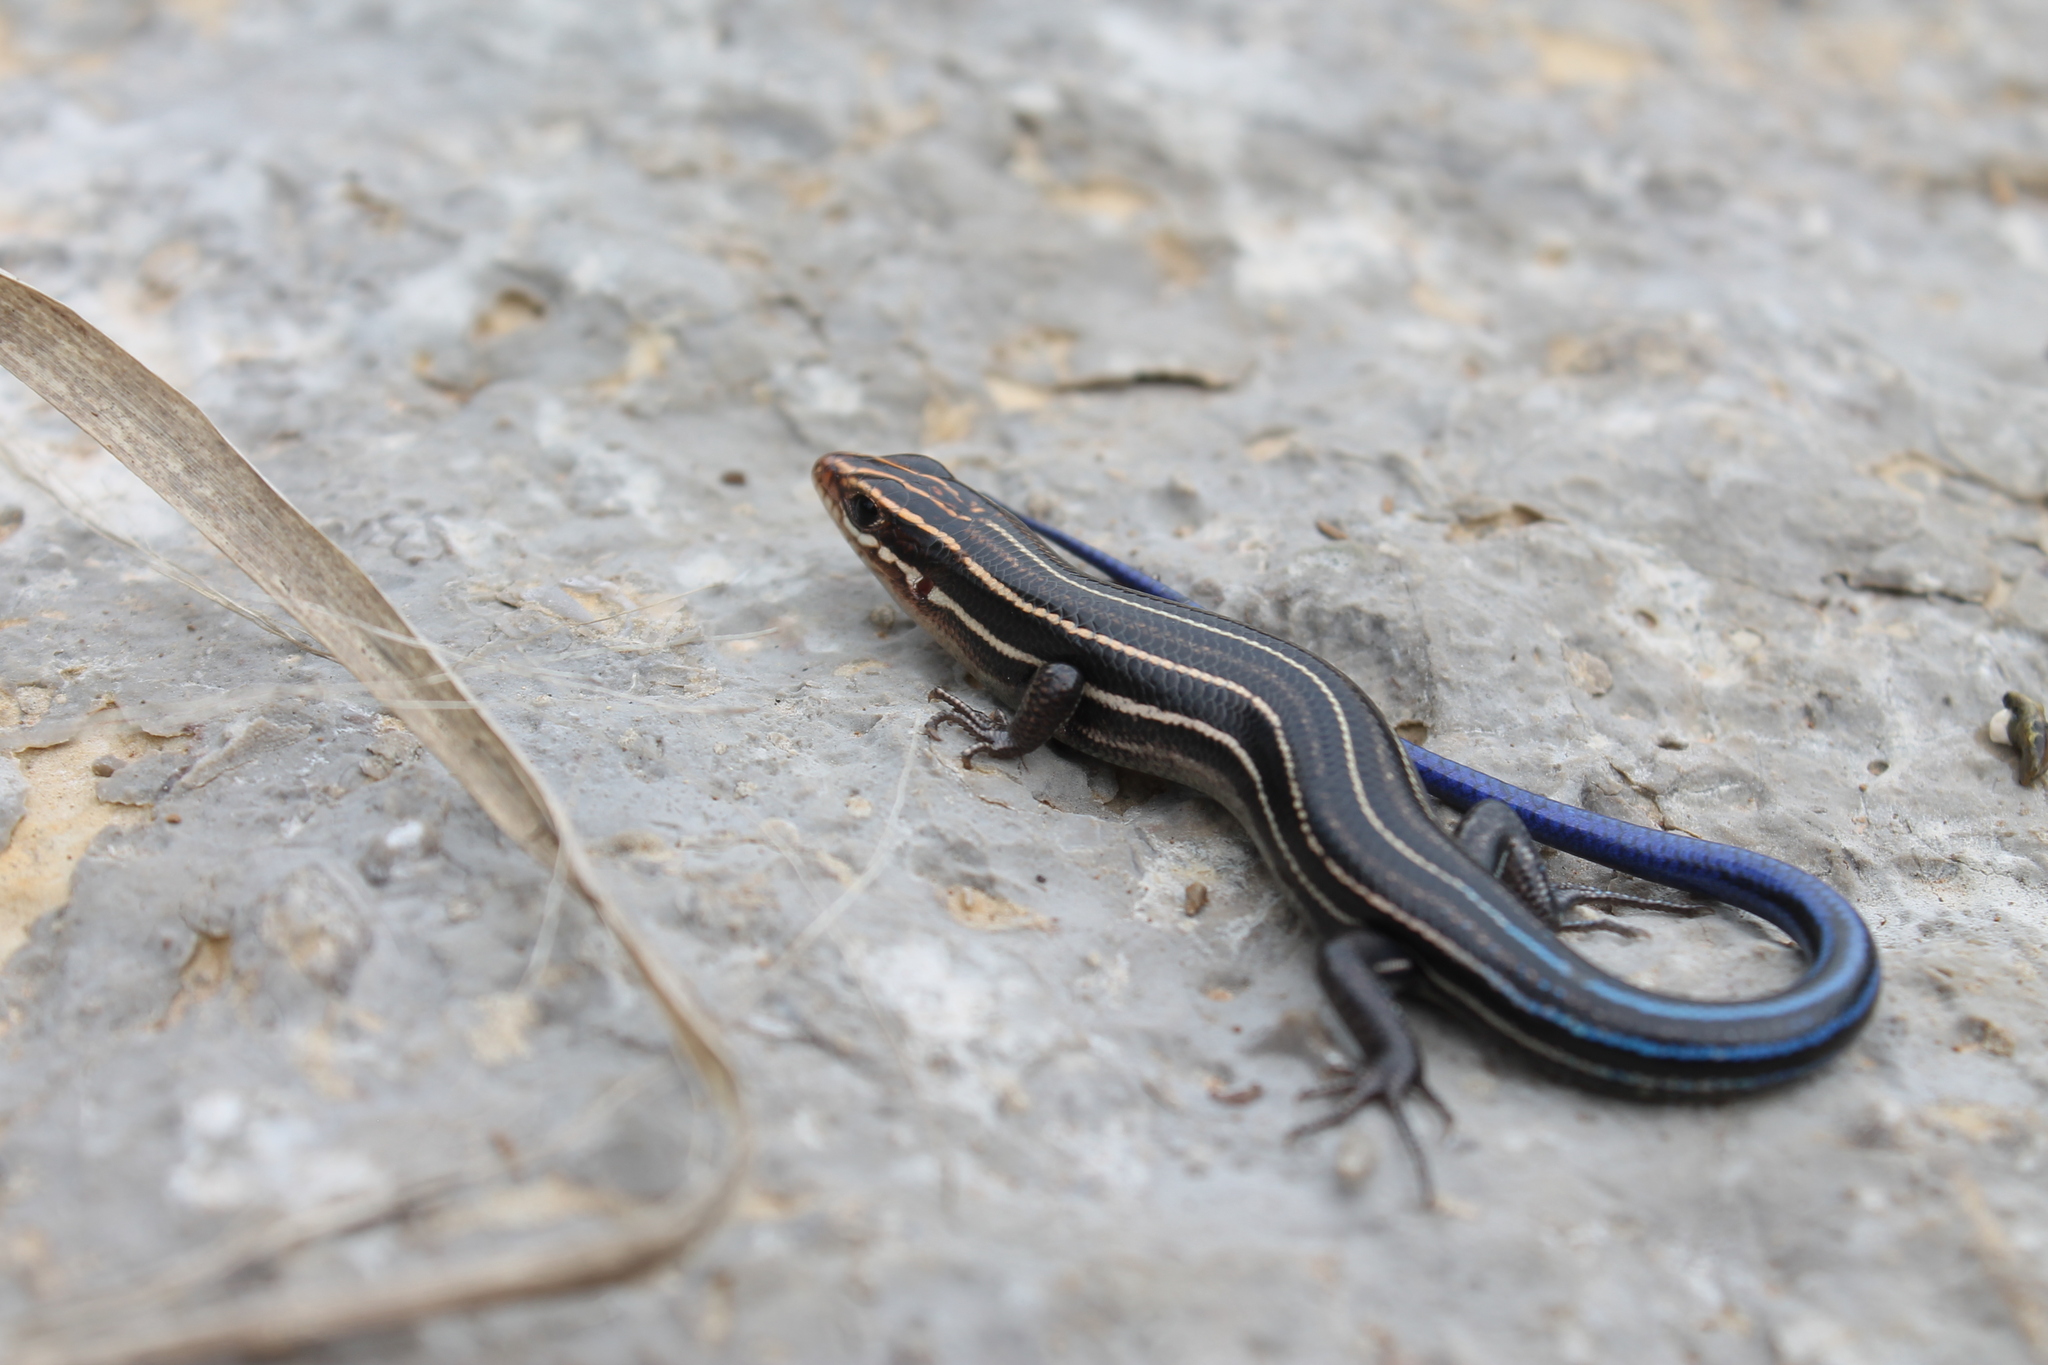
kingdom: Animalia
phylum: Chordata
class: Squamata
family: Scincidae
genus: Plestiodon
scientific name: Plestiodon inexpectatus
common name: Southeastern five-lined skink
